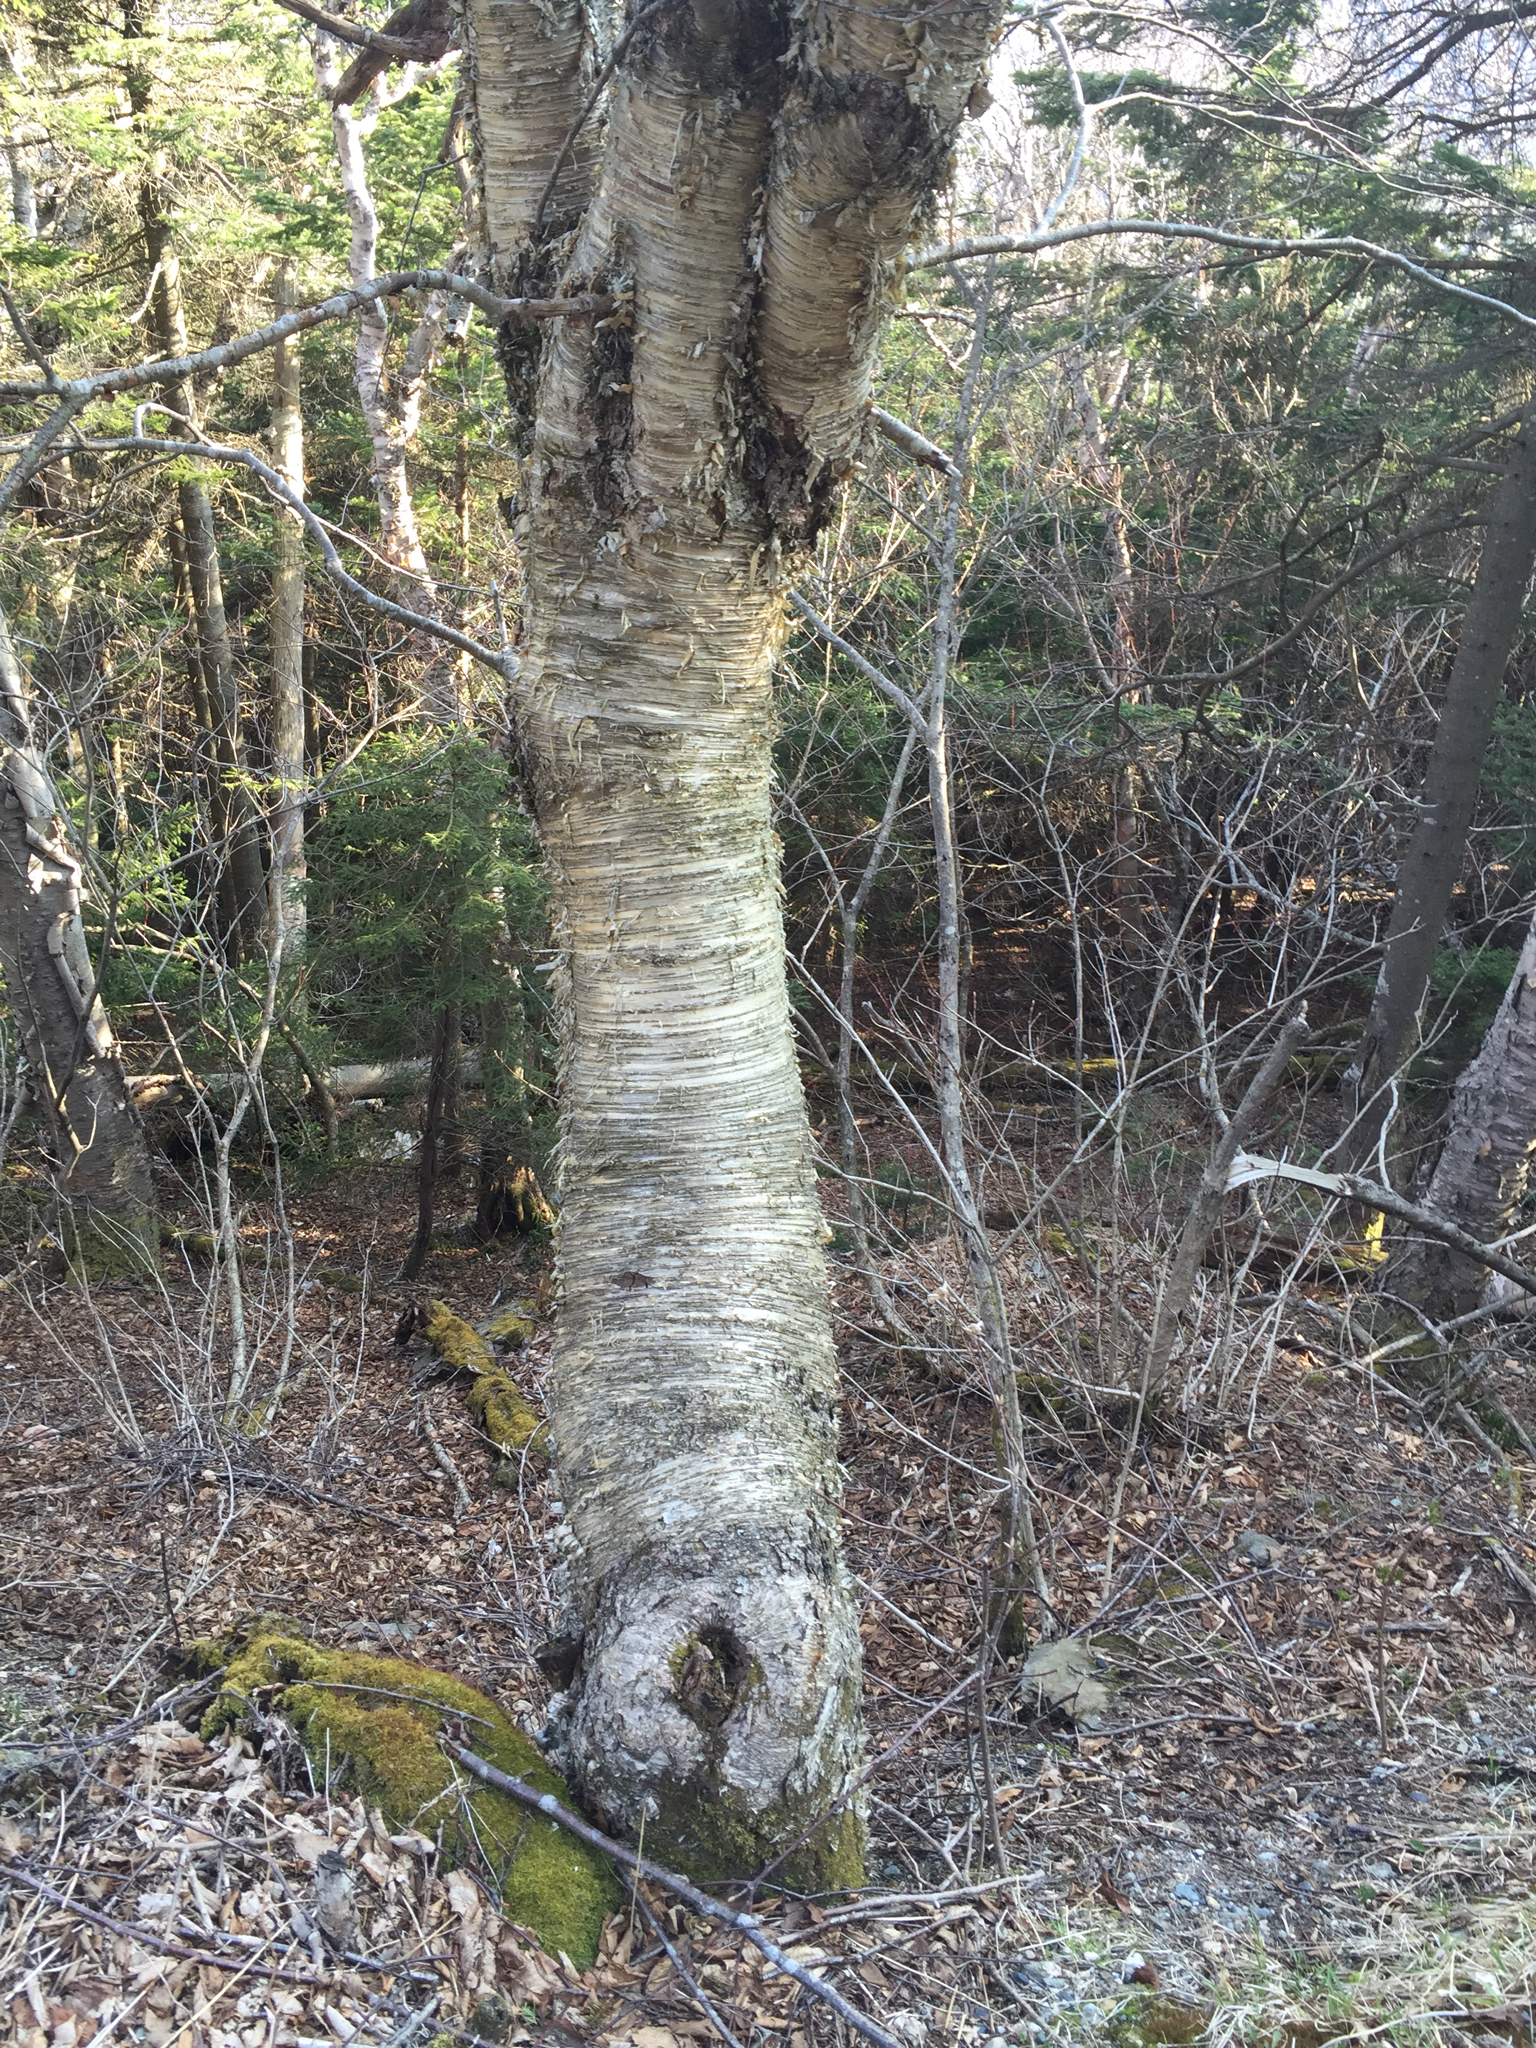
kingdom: Plantae
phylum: Tracheophyta
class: Magnoliopsida
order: Fagales
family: Betulaceae
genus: Betula
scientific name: Betula alleghaniensis
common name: Yellow birch
